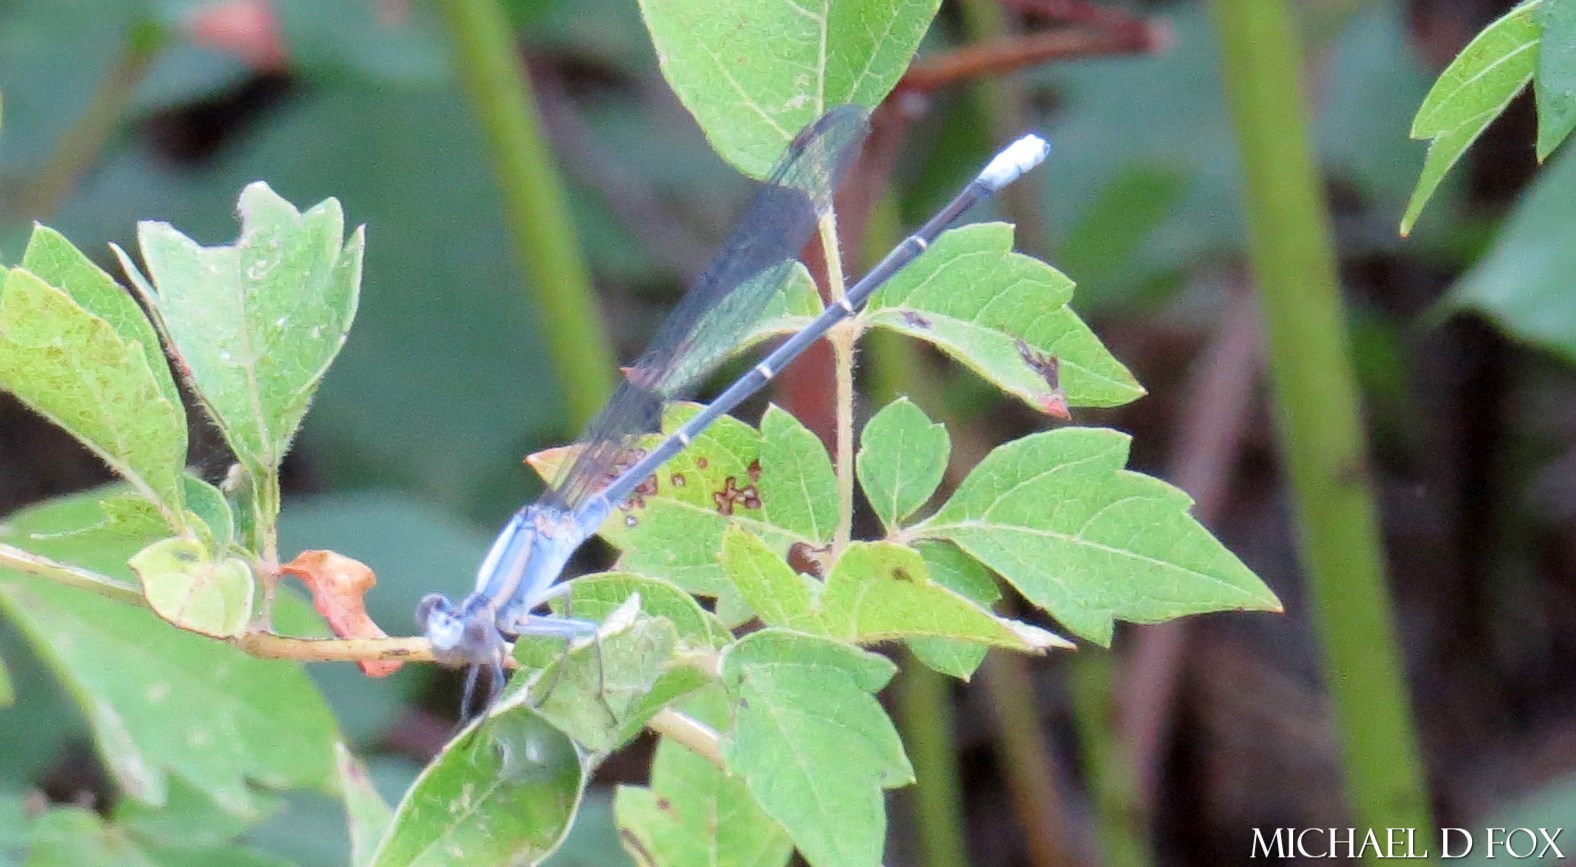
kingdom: Animalia
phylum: Arthropoda
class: Insecta
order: Odonata
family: Coenagrionidae
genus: Argia
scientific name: Argia moesta
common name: Powdered dancer
